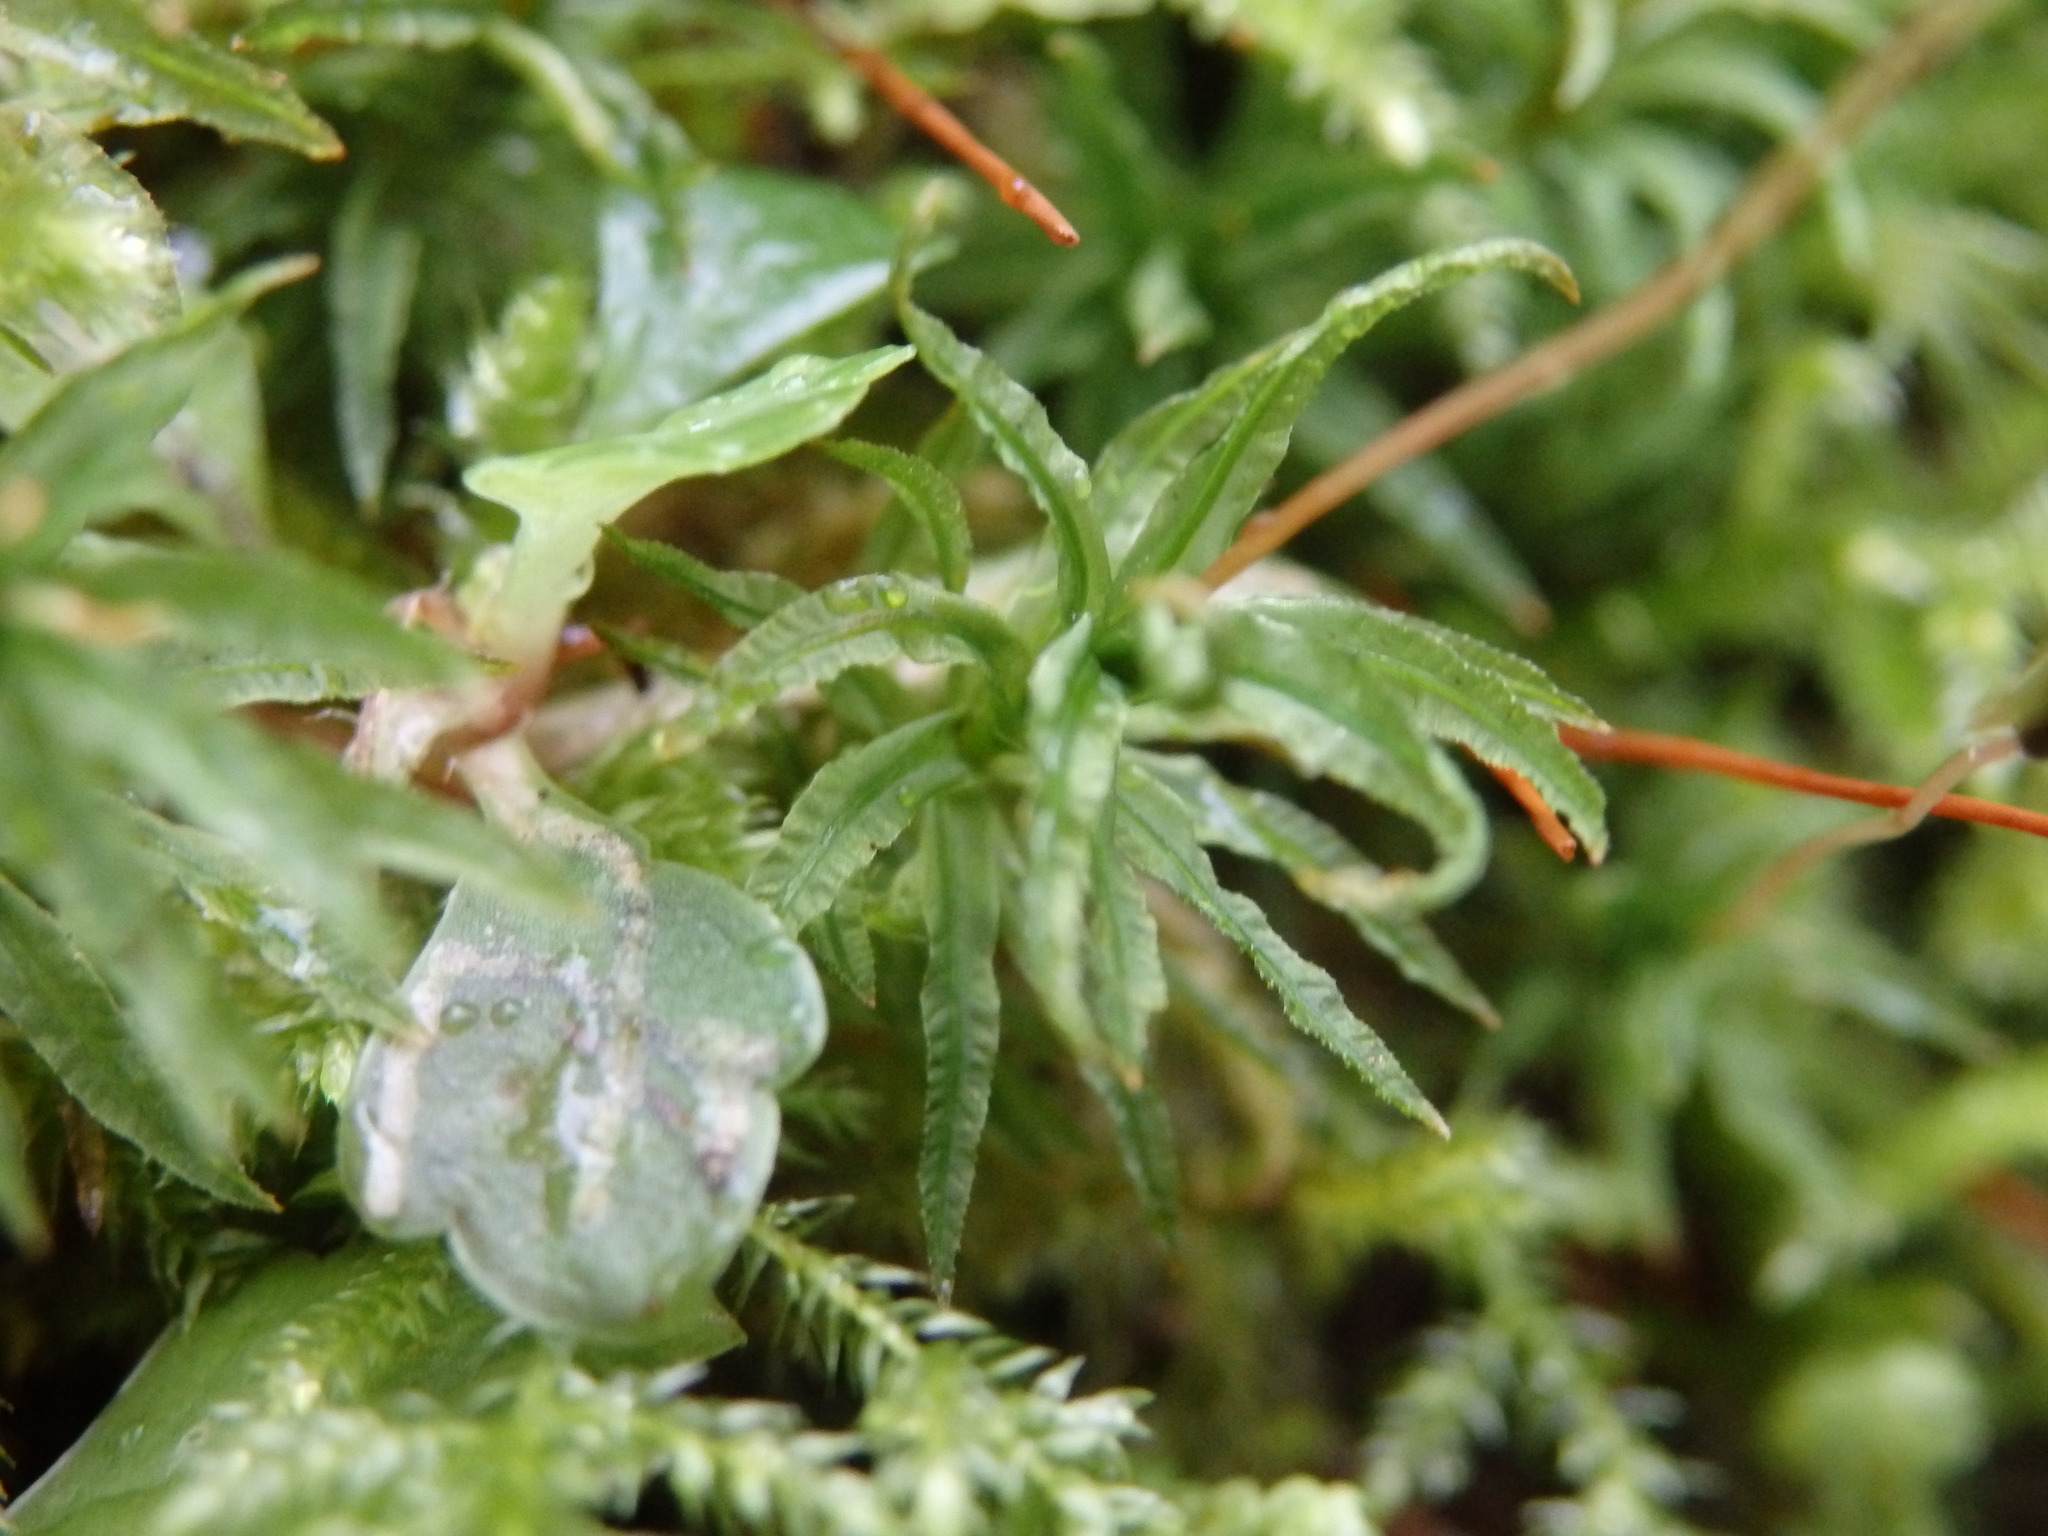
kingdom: Plantae
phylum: Bryophyta
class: Polytrichopsida
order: Polytrichales
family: Polytrichaceae
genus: Atrichum
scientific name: Atrichum undulatum
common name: Common smoothcap
